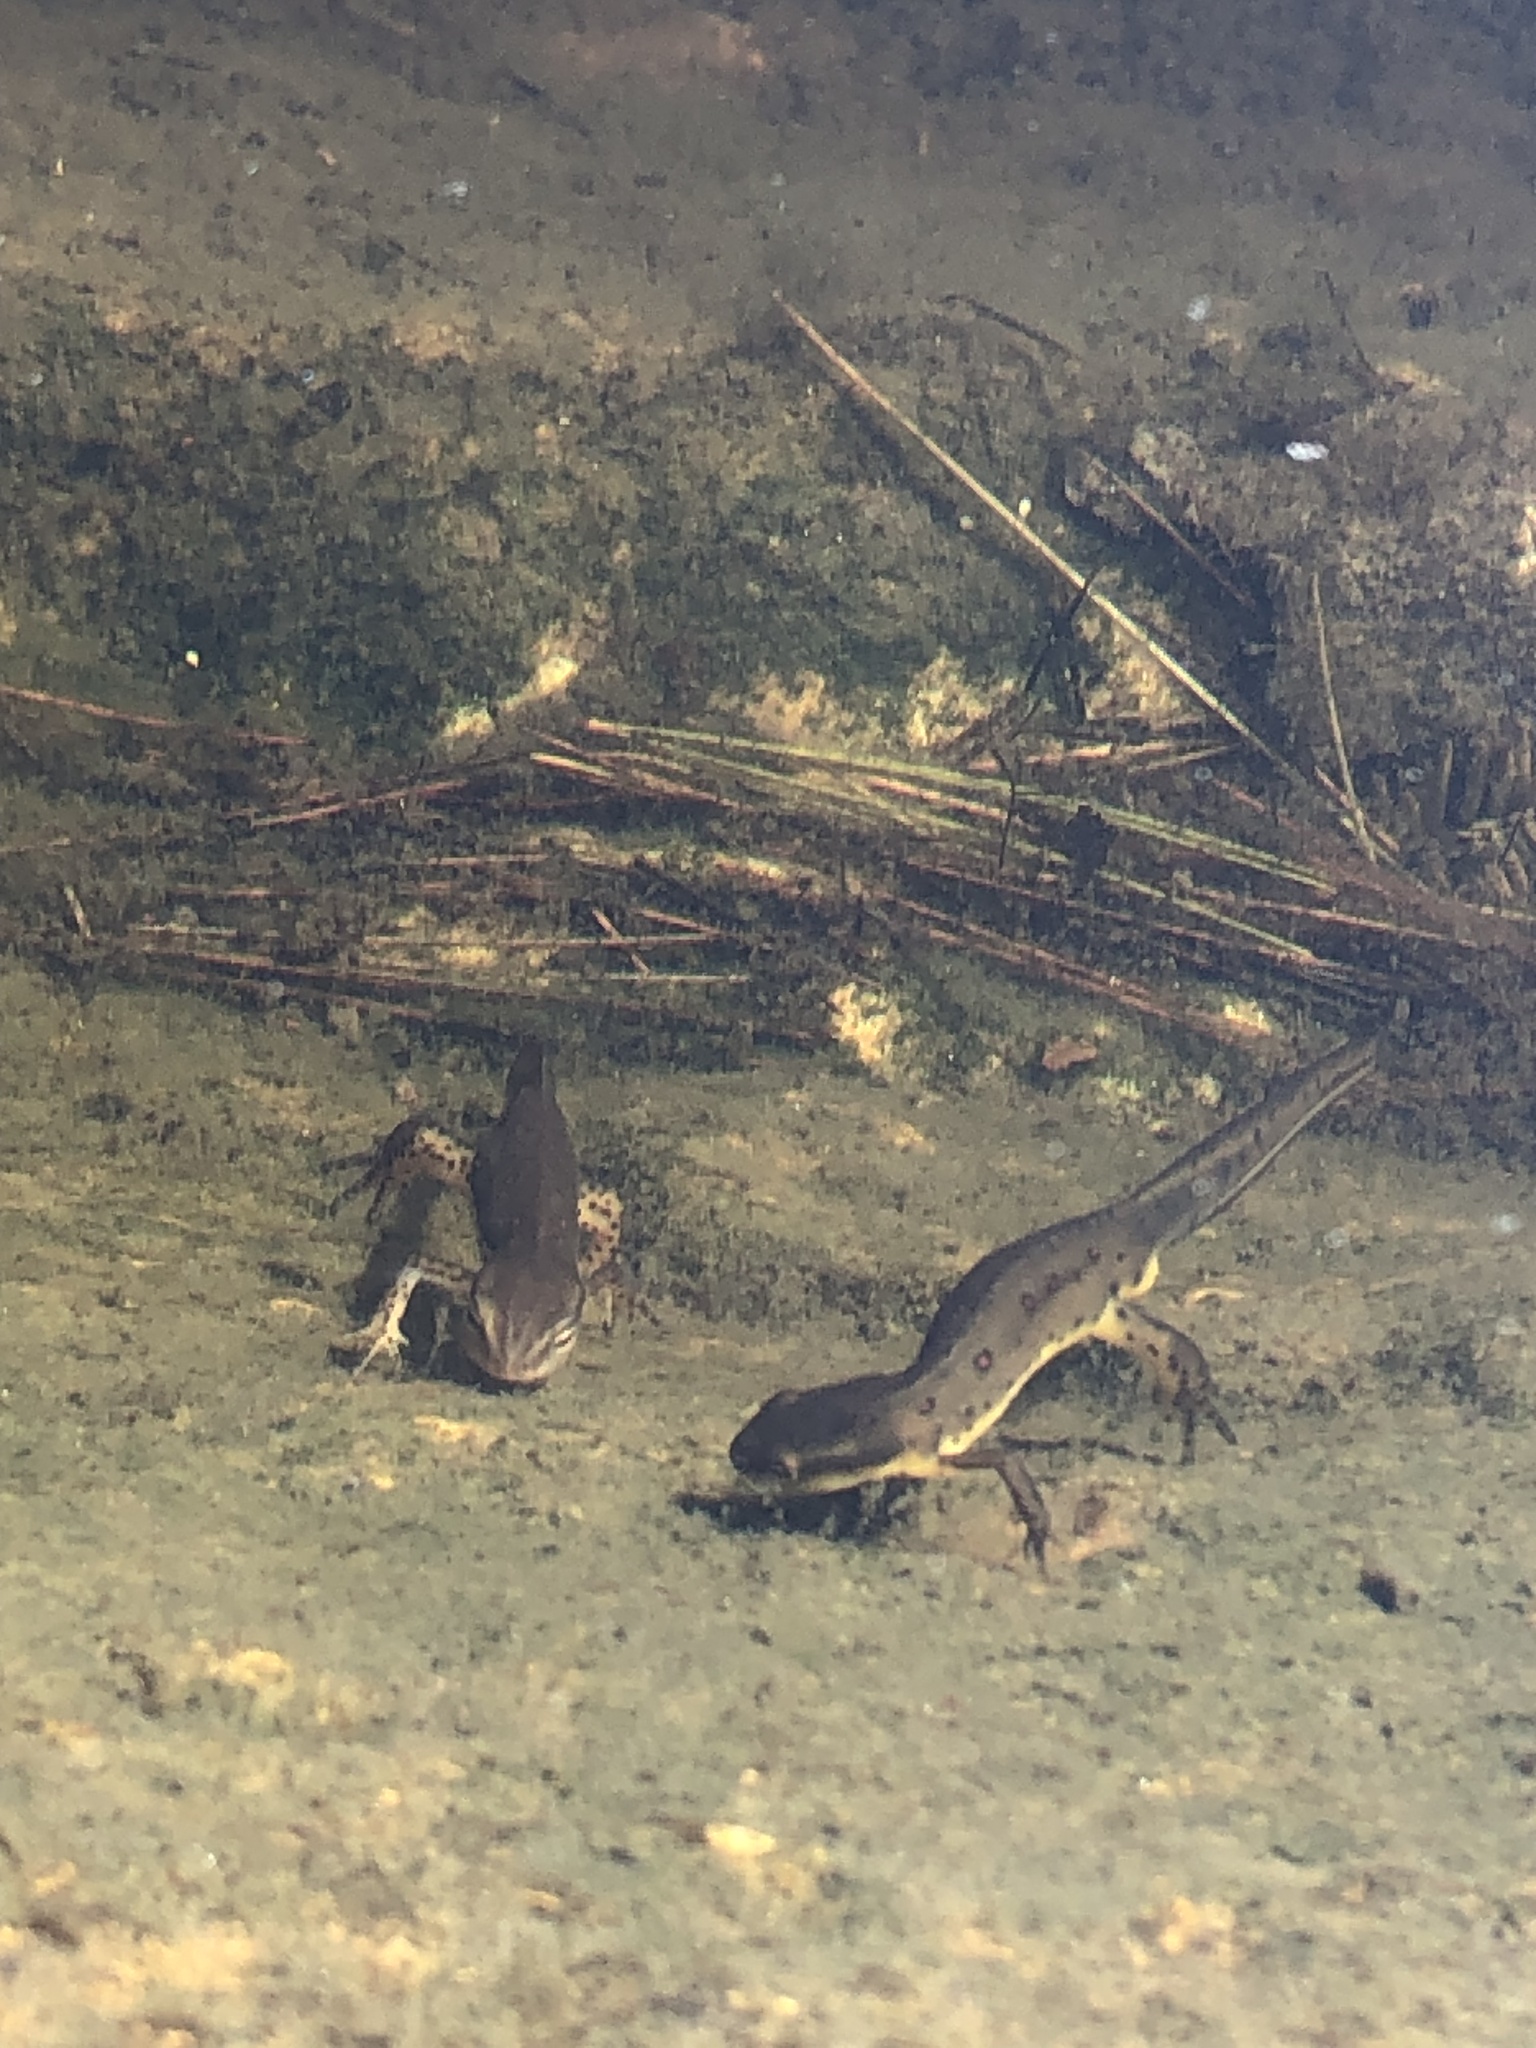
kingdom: Animalia
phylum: Chordata
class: Amphibia
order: Caudata
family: Salamandridae
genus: Notophthalmus
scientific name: Notophthalmus viridescens
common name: Eastern newt
